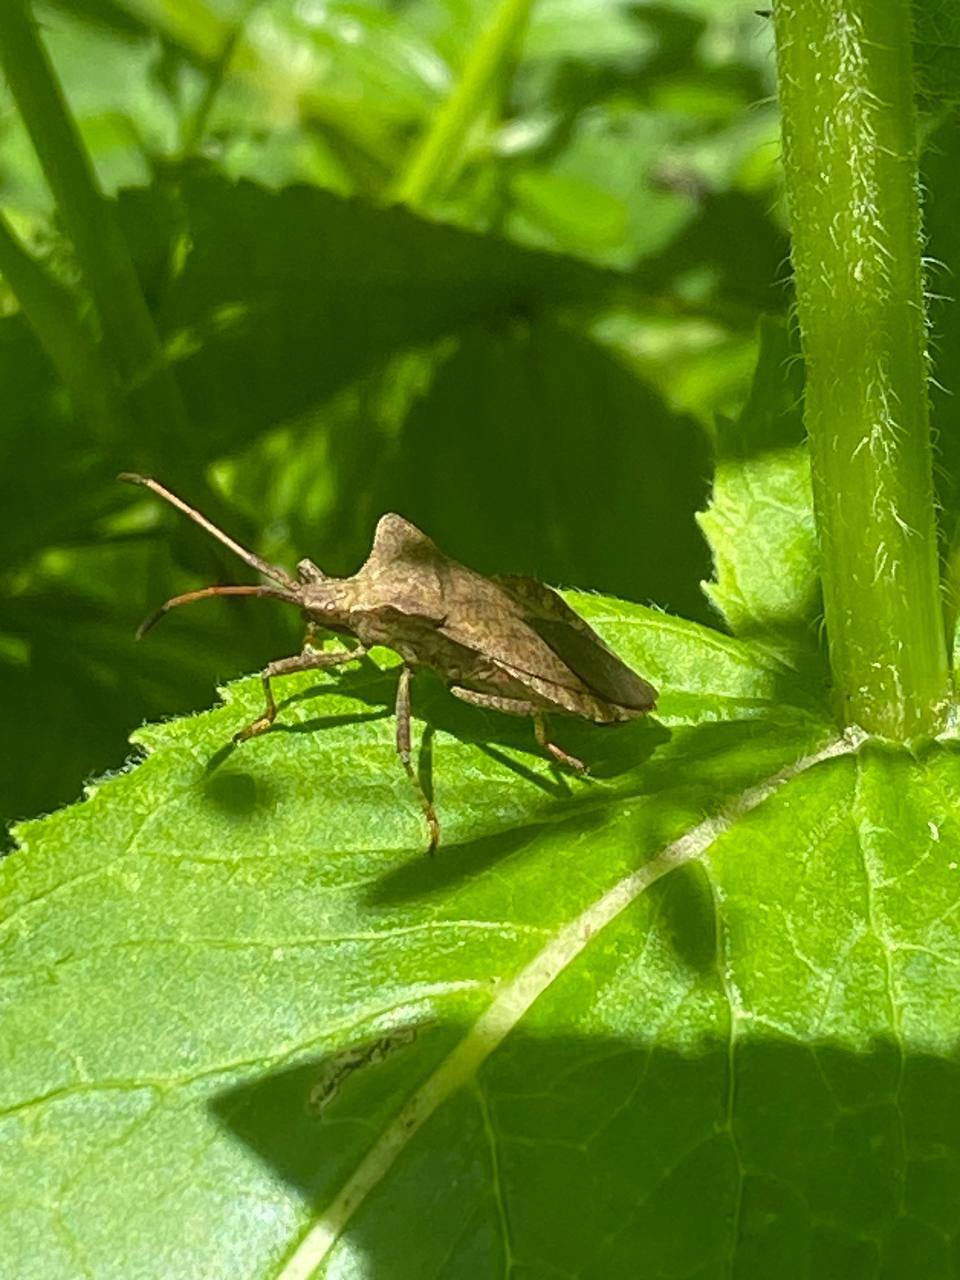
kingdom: Animalia
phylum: Arthropoda
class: Insecta
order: Hemiptera
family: Coreidae
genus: Coreus
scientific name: Coreus marginatus
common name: Dock bug
